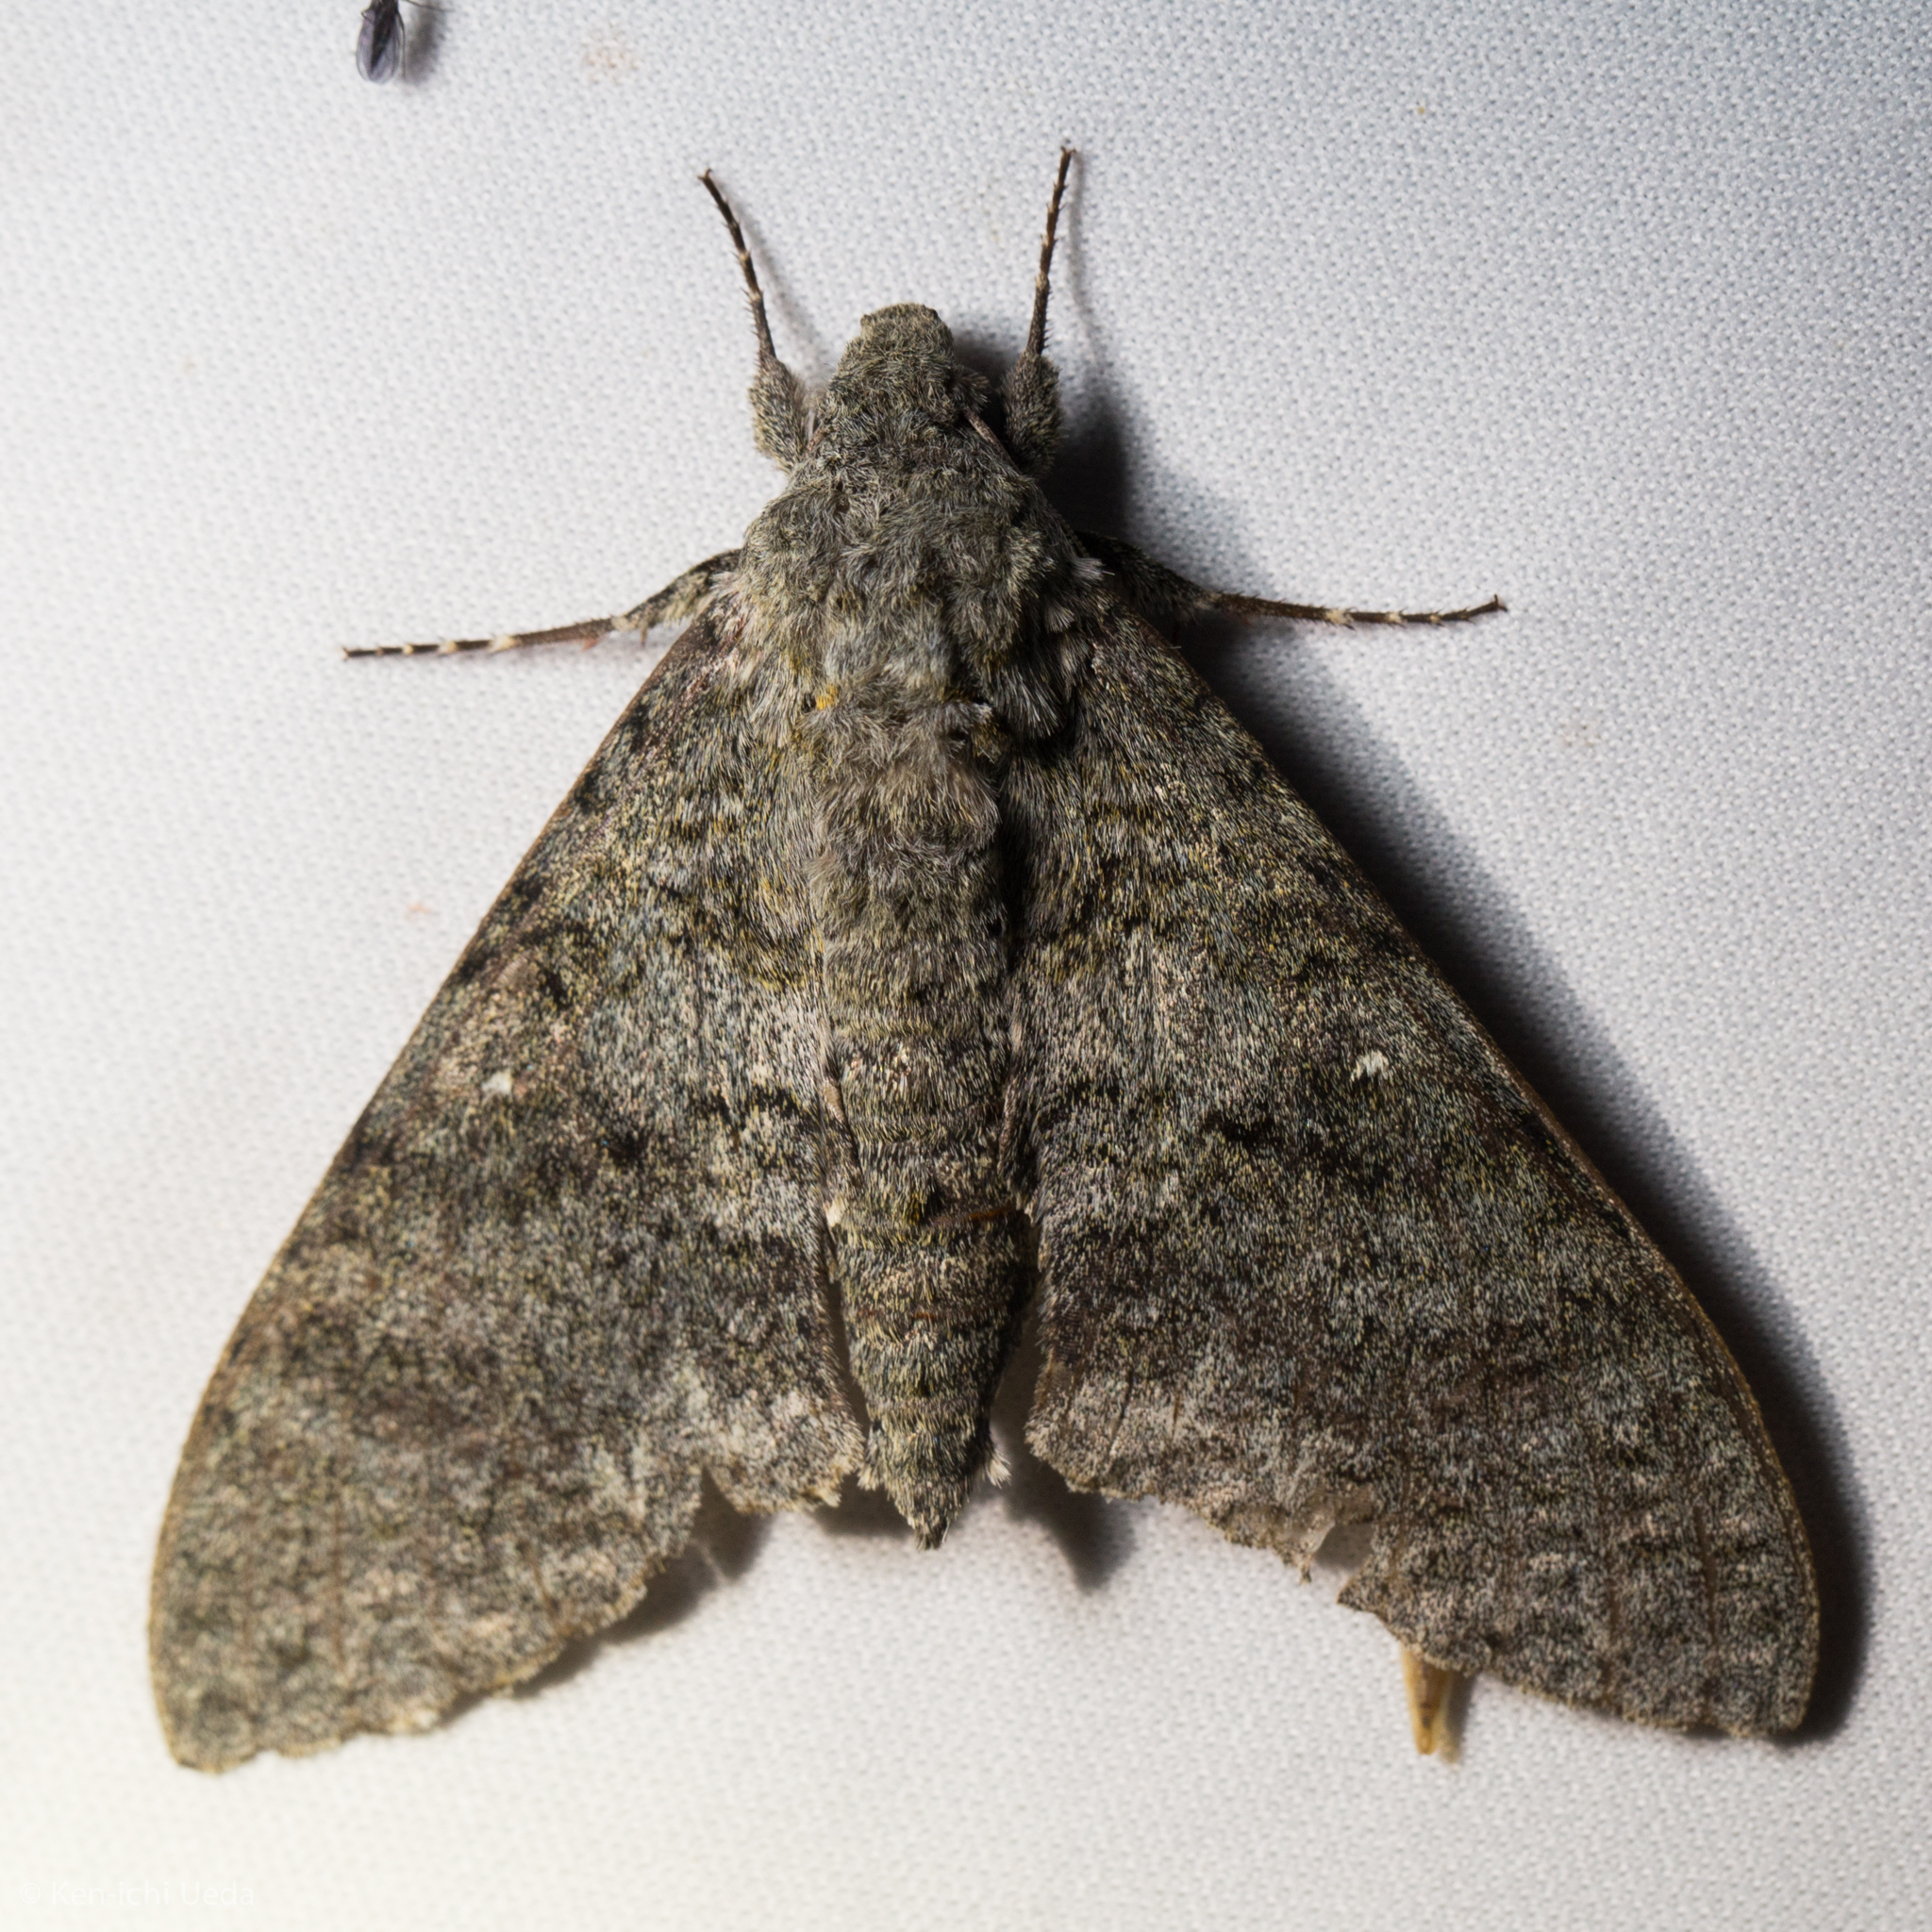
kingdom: Animalia
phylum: Arthropoda
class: Insecta
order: Lepidoptera
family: Sphingidae
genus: Manduca
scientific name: Manduca muscosa
